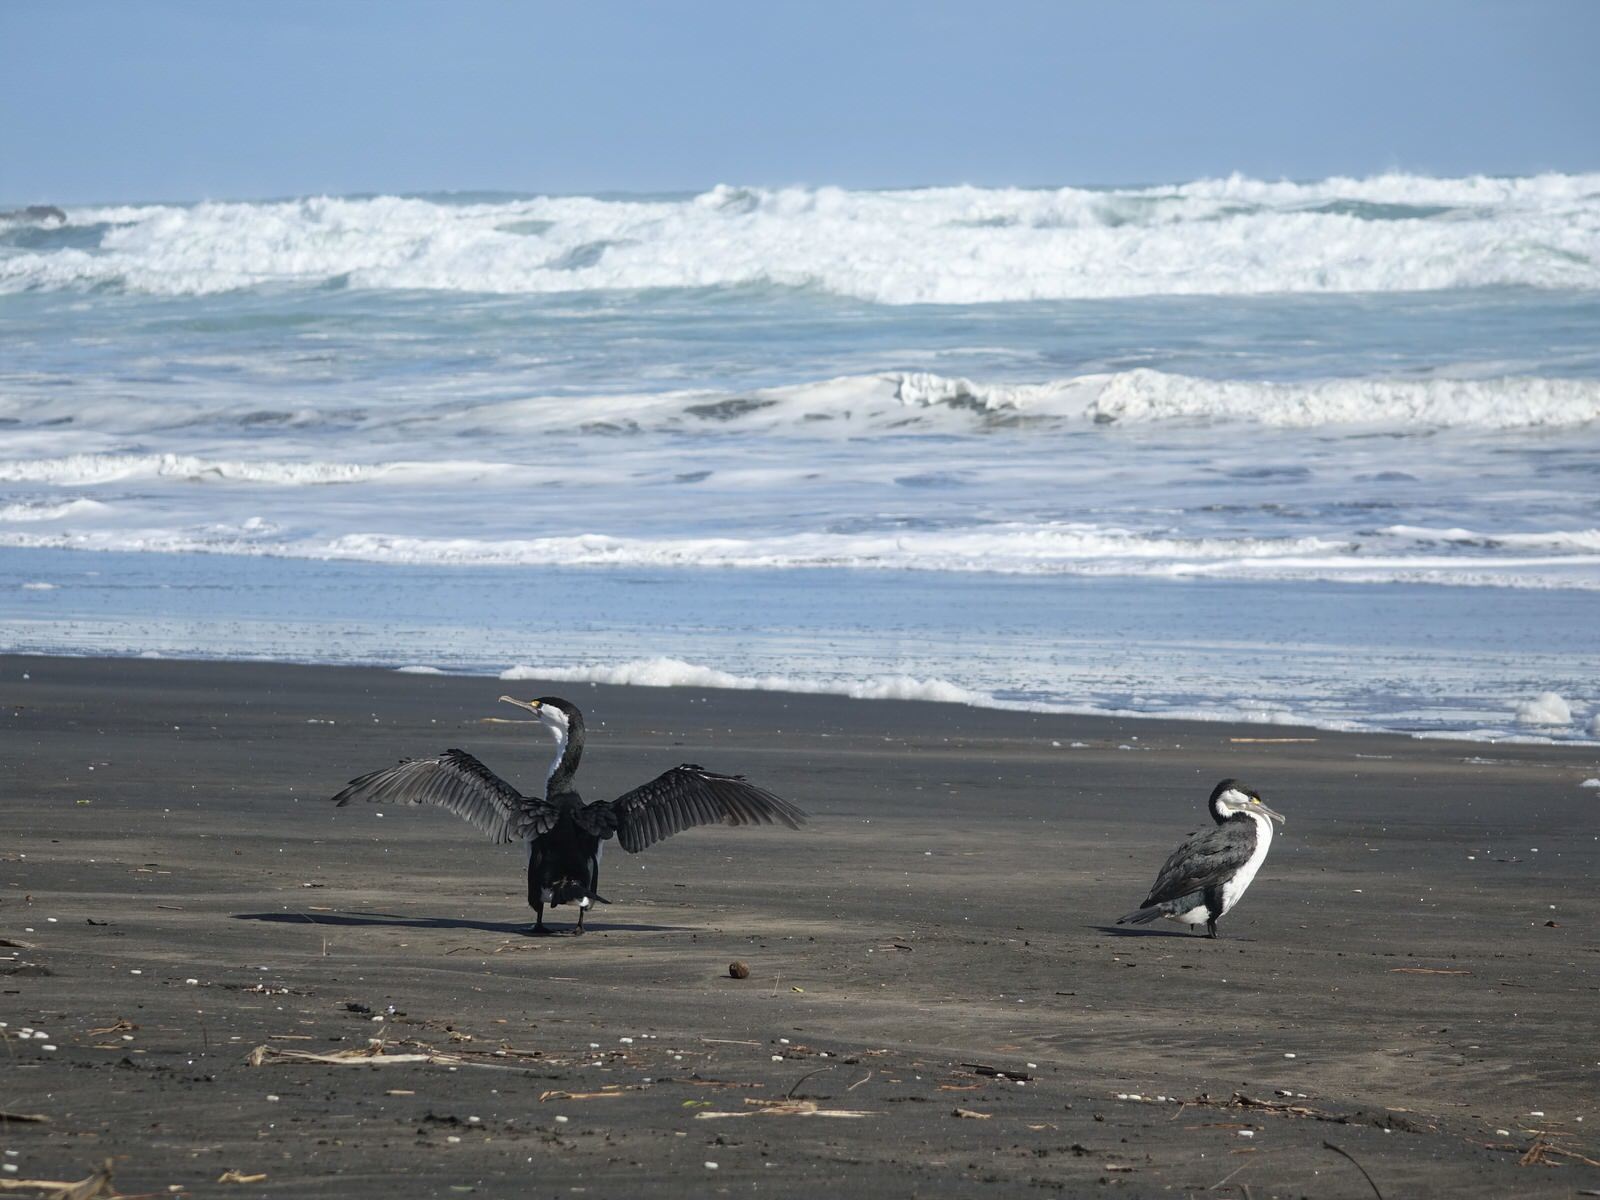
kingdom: Animalia
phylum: Chordata
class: Aves
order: Suliformes
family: Phalacrocoracidae
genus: Phalacrocorax
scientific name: Phalacrocorax varius
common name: Pied cormorant
